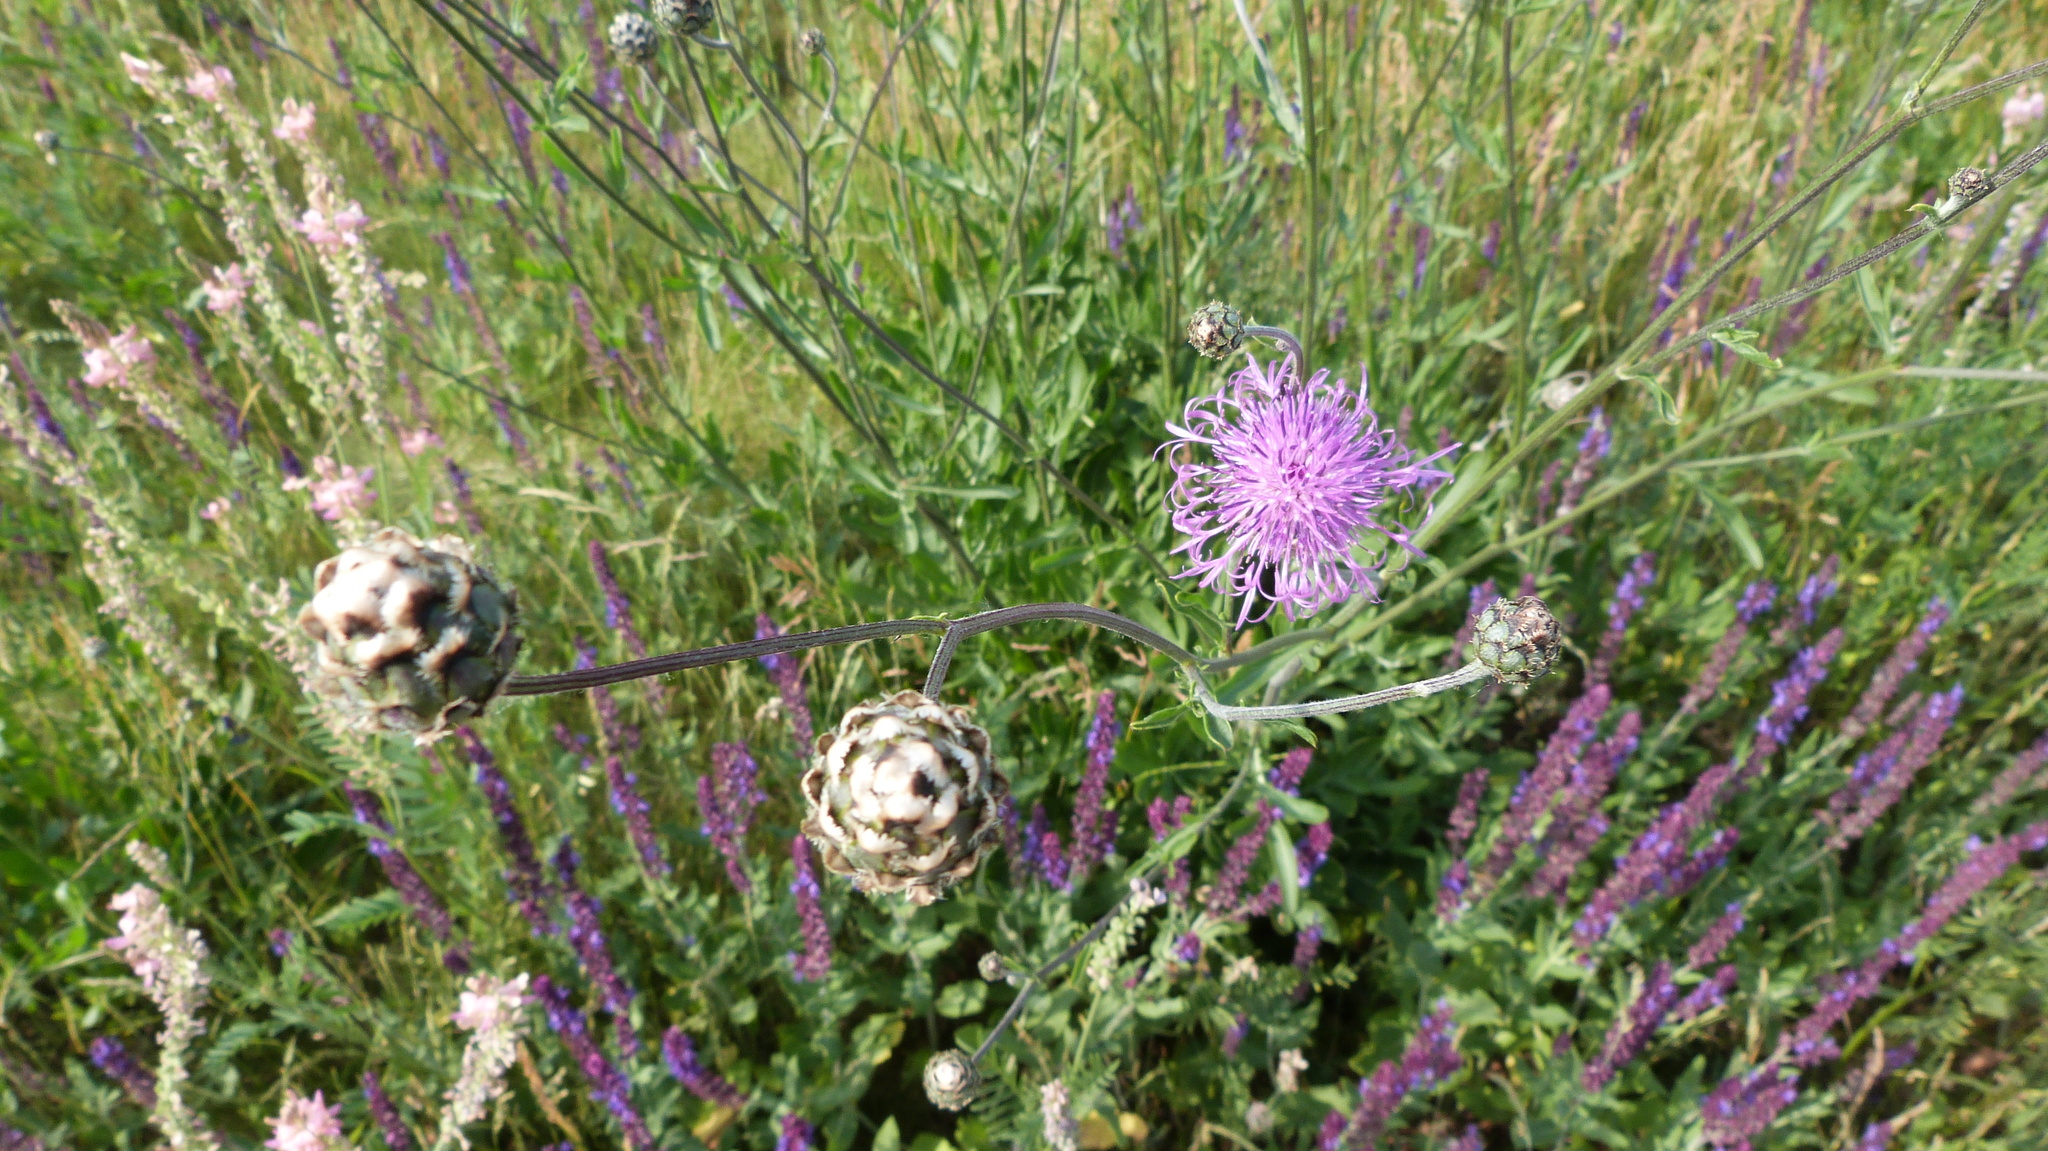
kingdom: Plantae
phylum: Tracheophyta
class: Magnoliopsida
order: Asterales
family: Asteraceae
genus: Centaurea
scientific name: Centaurea scabiosa
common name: Greater knapweed
